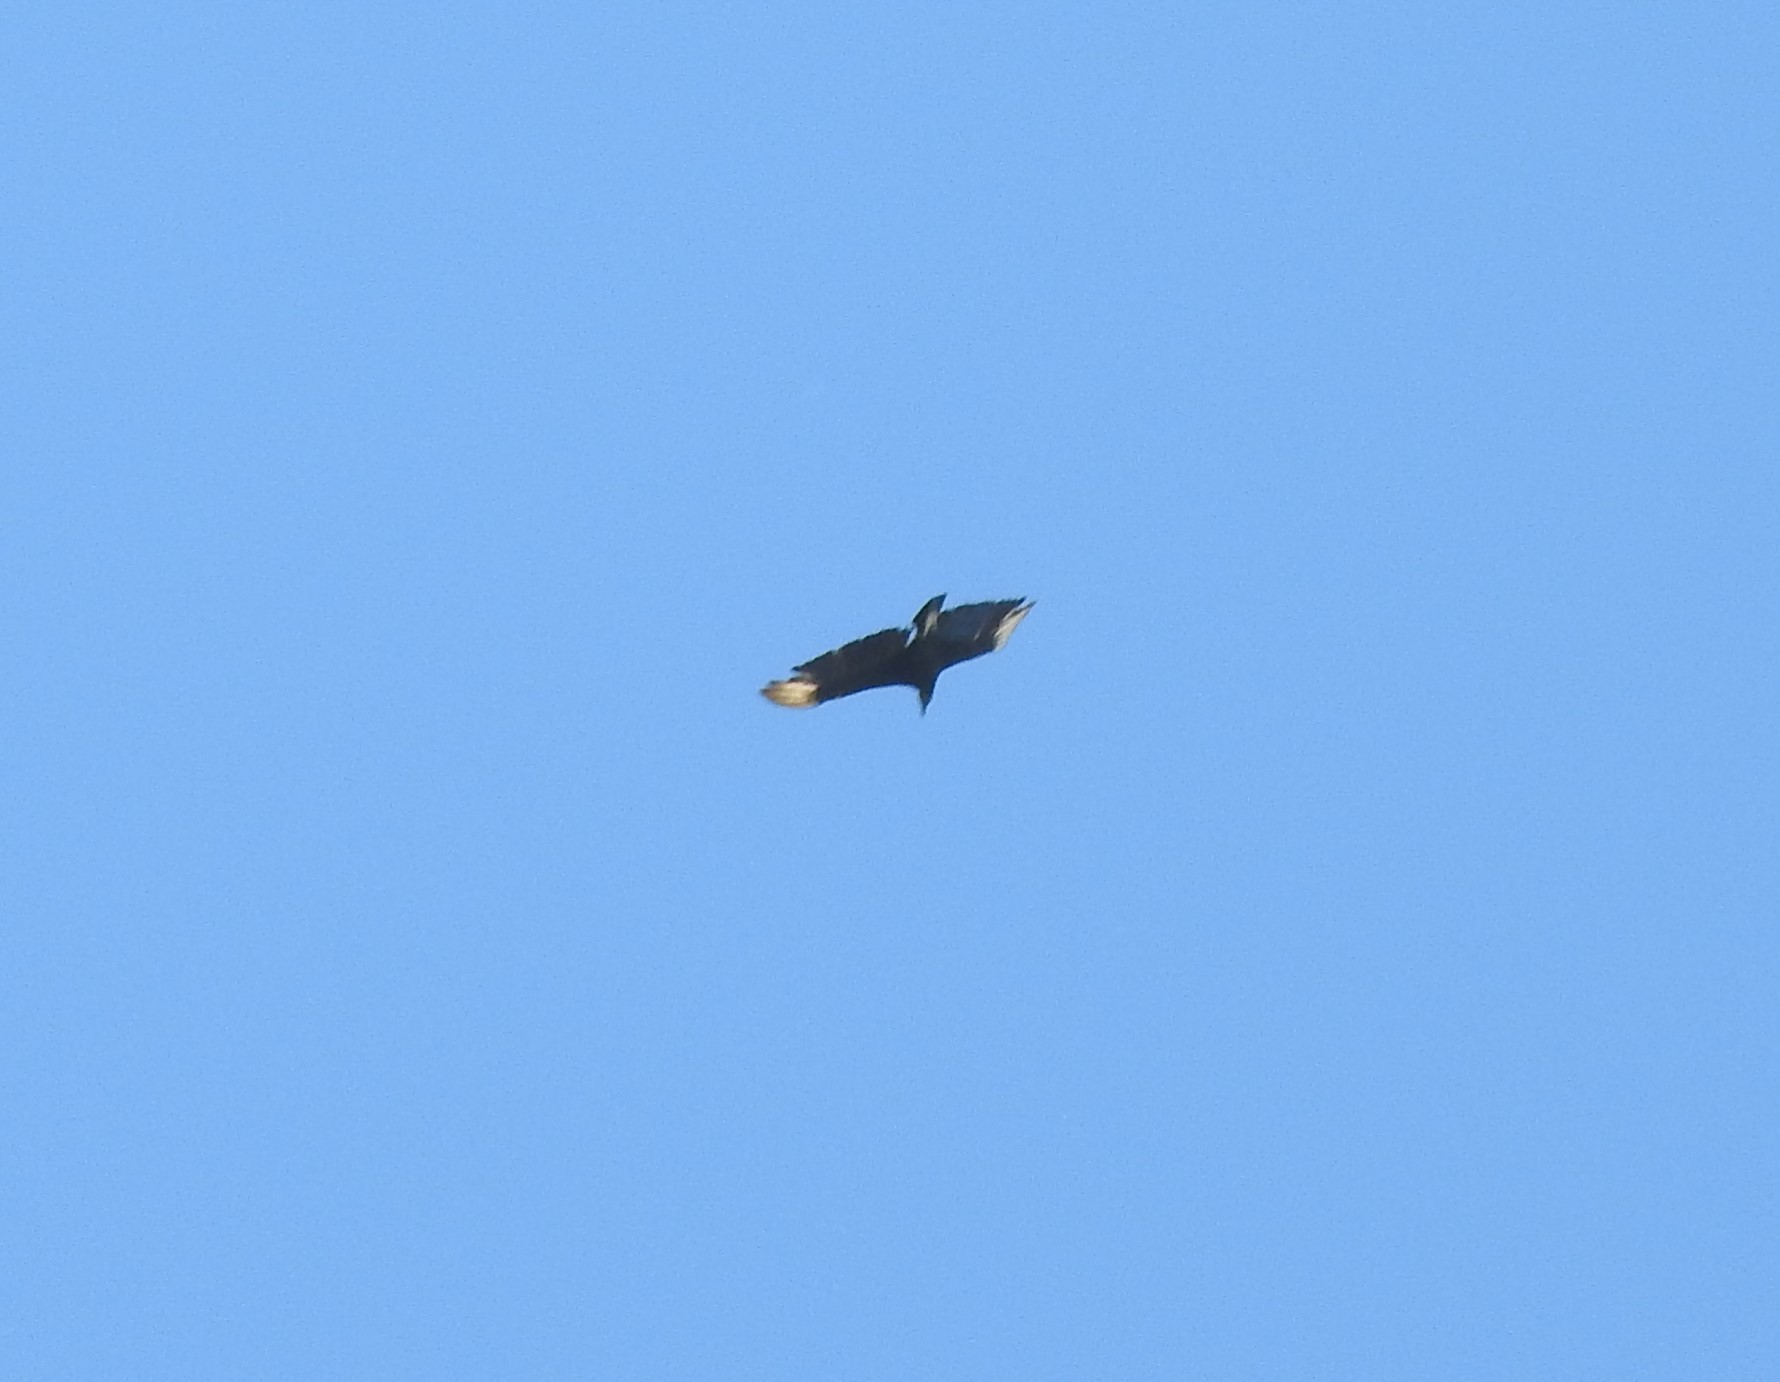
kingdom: Animalia
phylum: Chordata
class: Aves
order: Accipitriformes
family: Cathartidae
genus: Coragyps
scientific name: Coragyps atratus
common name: Black vulture
